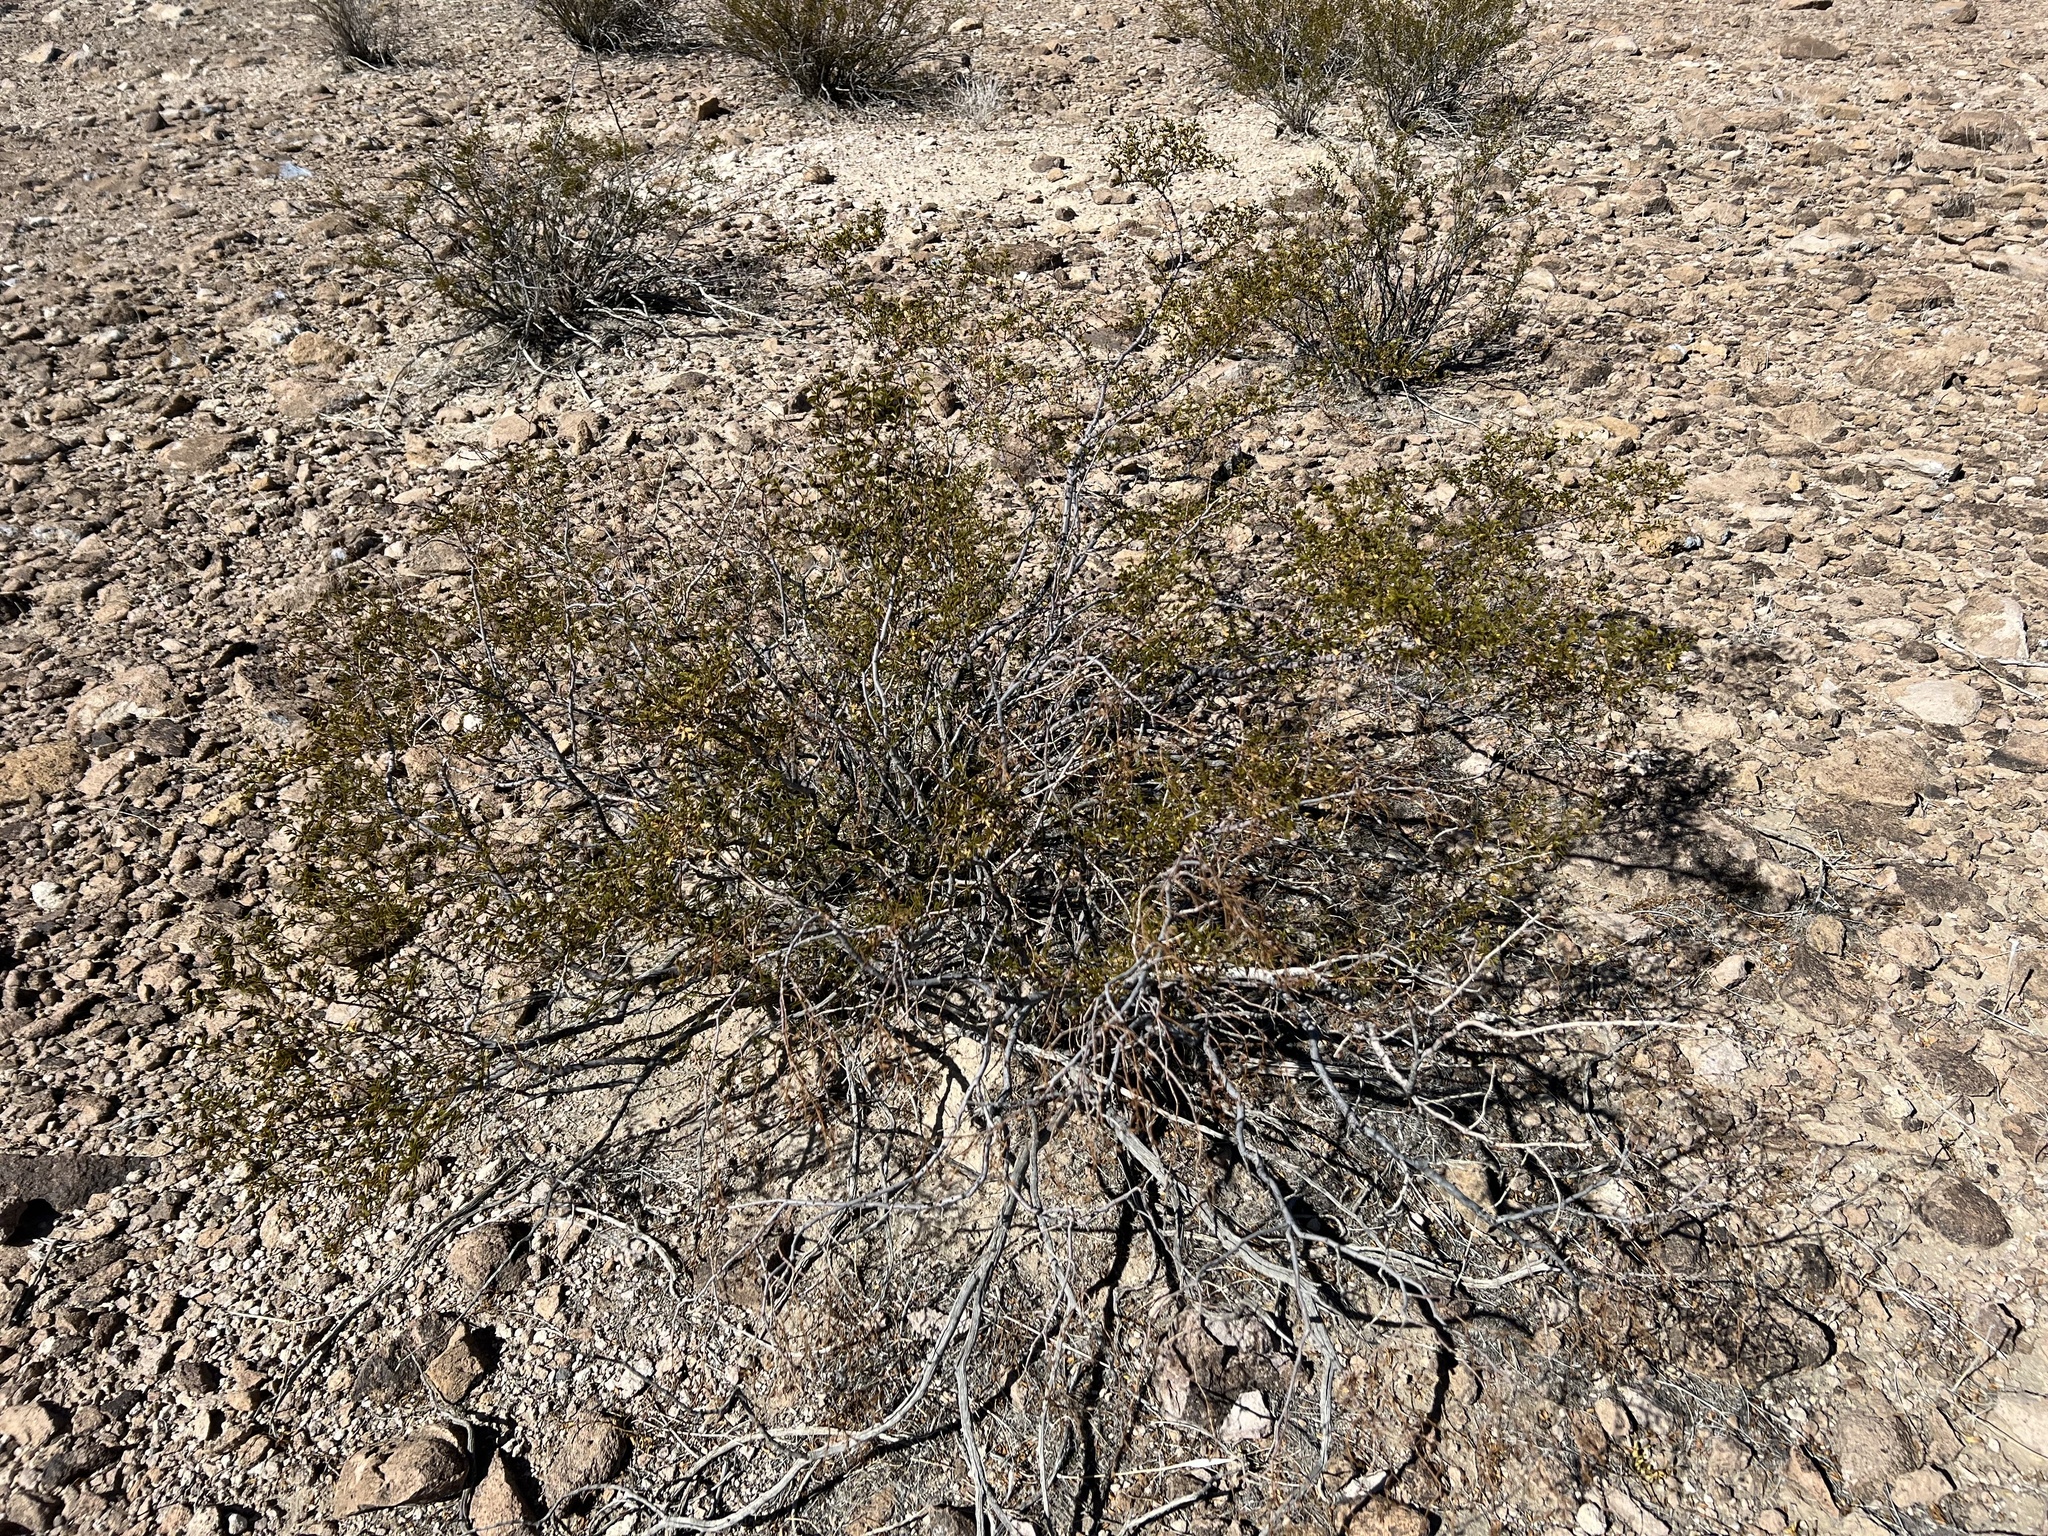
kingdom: Plantae
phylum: Tracheophyta
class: Magnoliopsida
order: Zygophyllales
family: Zygophyllaceae
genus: Larrea
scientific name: Larrea tridentata
